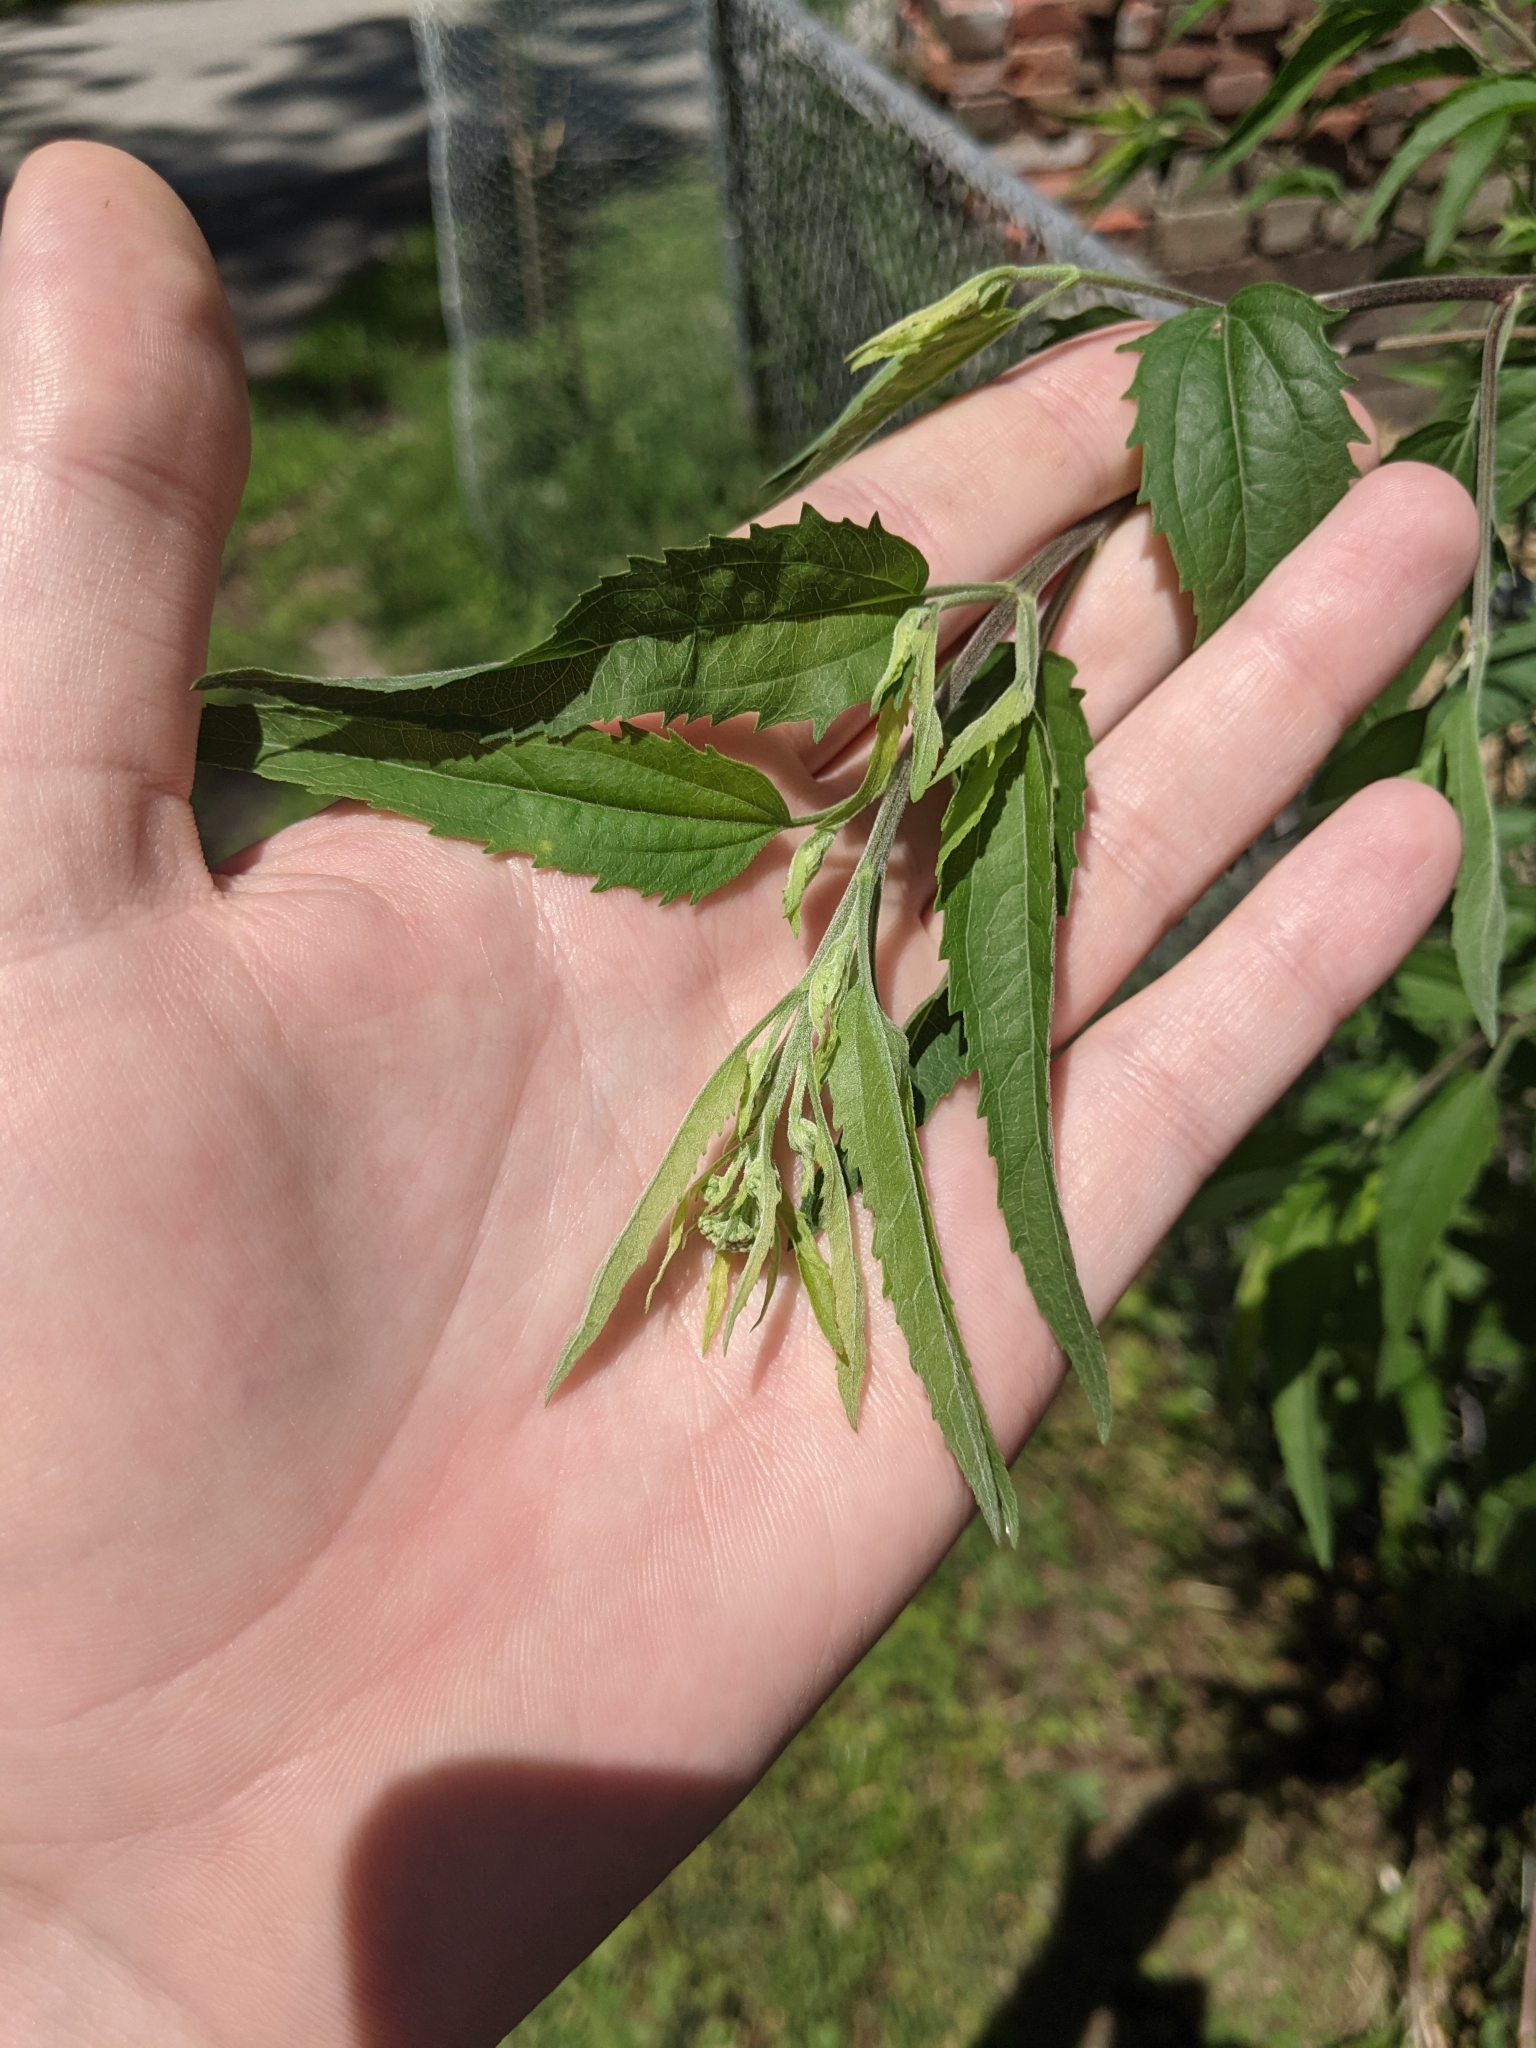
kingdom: Plantae
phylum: Tracheophyta
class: Magnoliopsida
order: Asterales
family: Asteraceae
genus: Eupatorium
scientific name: Eupatorium serotinum
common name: Late boneset
